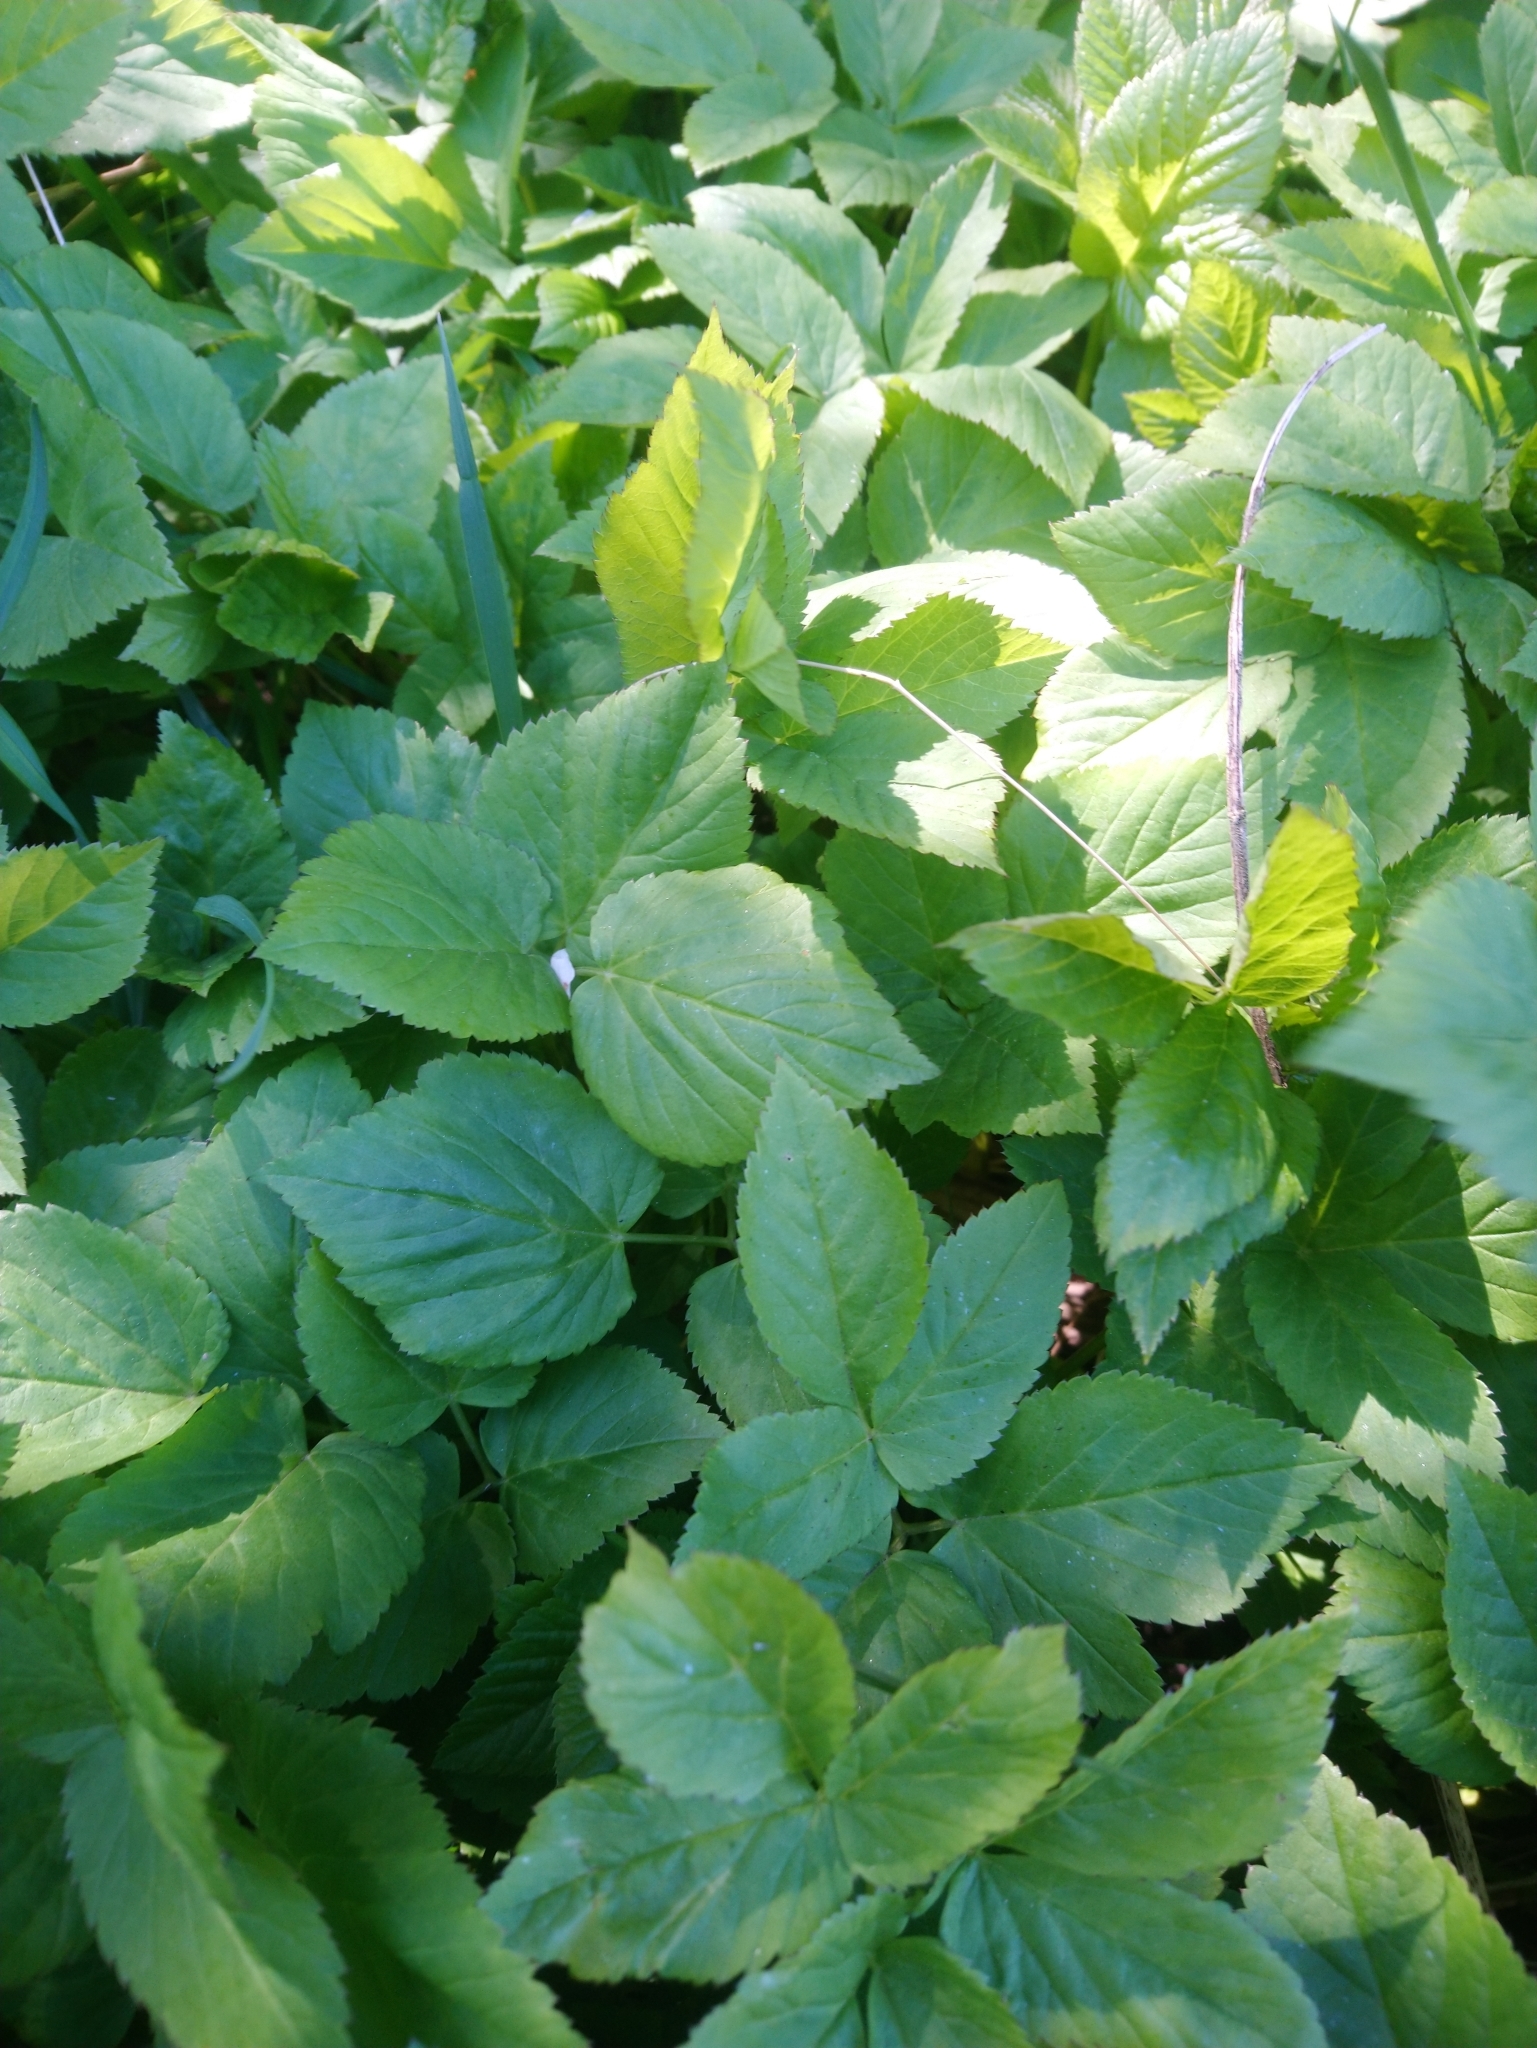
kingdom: Plantae
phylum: Tracheophyta
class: Magnoliopsida
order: Apiales
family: Apiaceae
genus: Aegopodium
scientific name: Aegopodium podagraria
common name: Ground-elder
